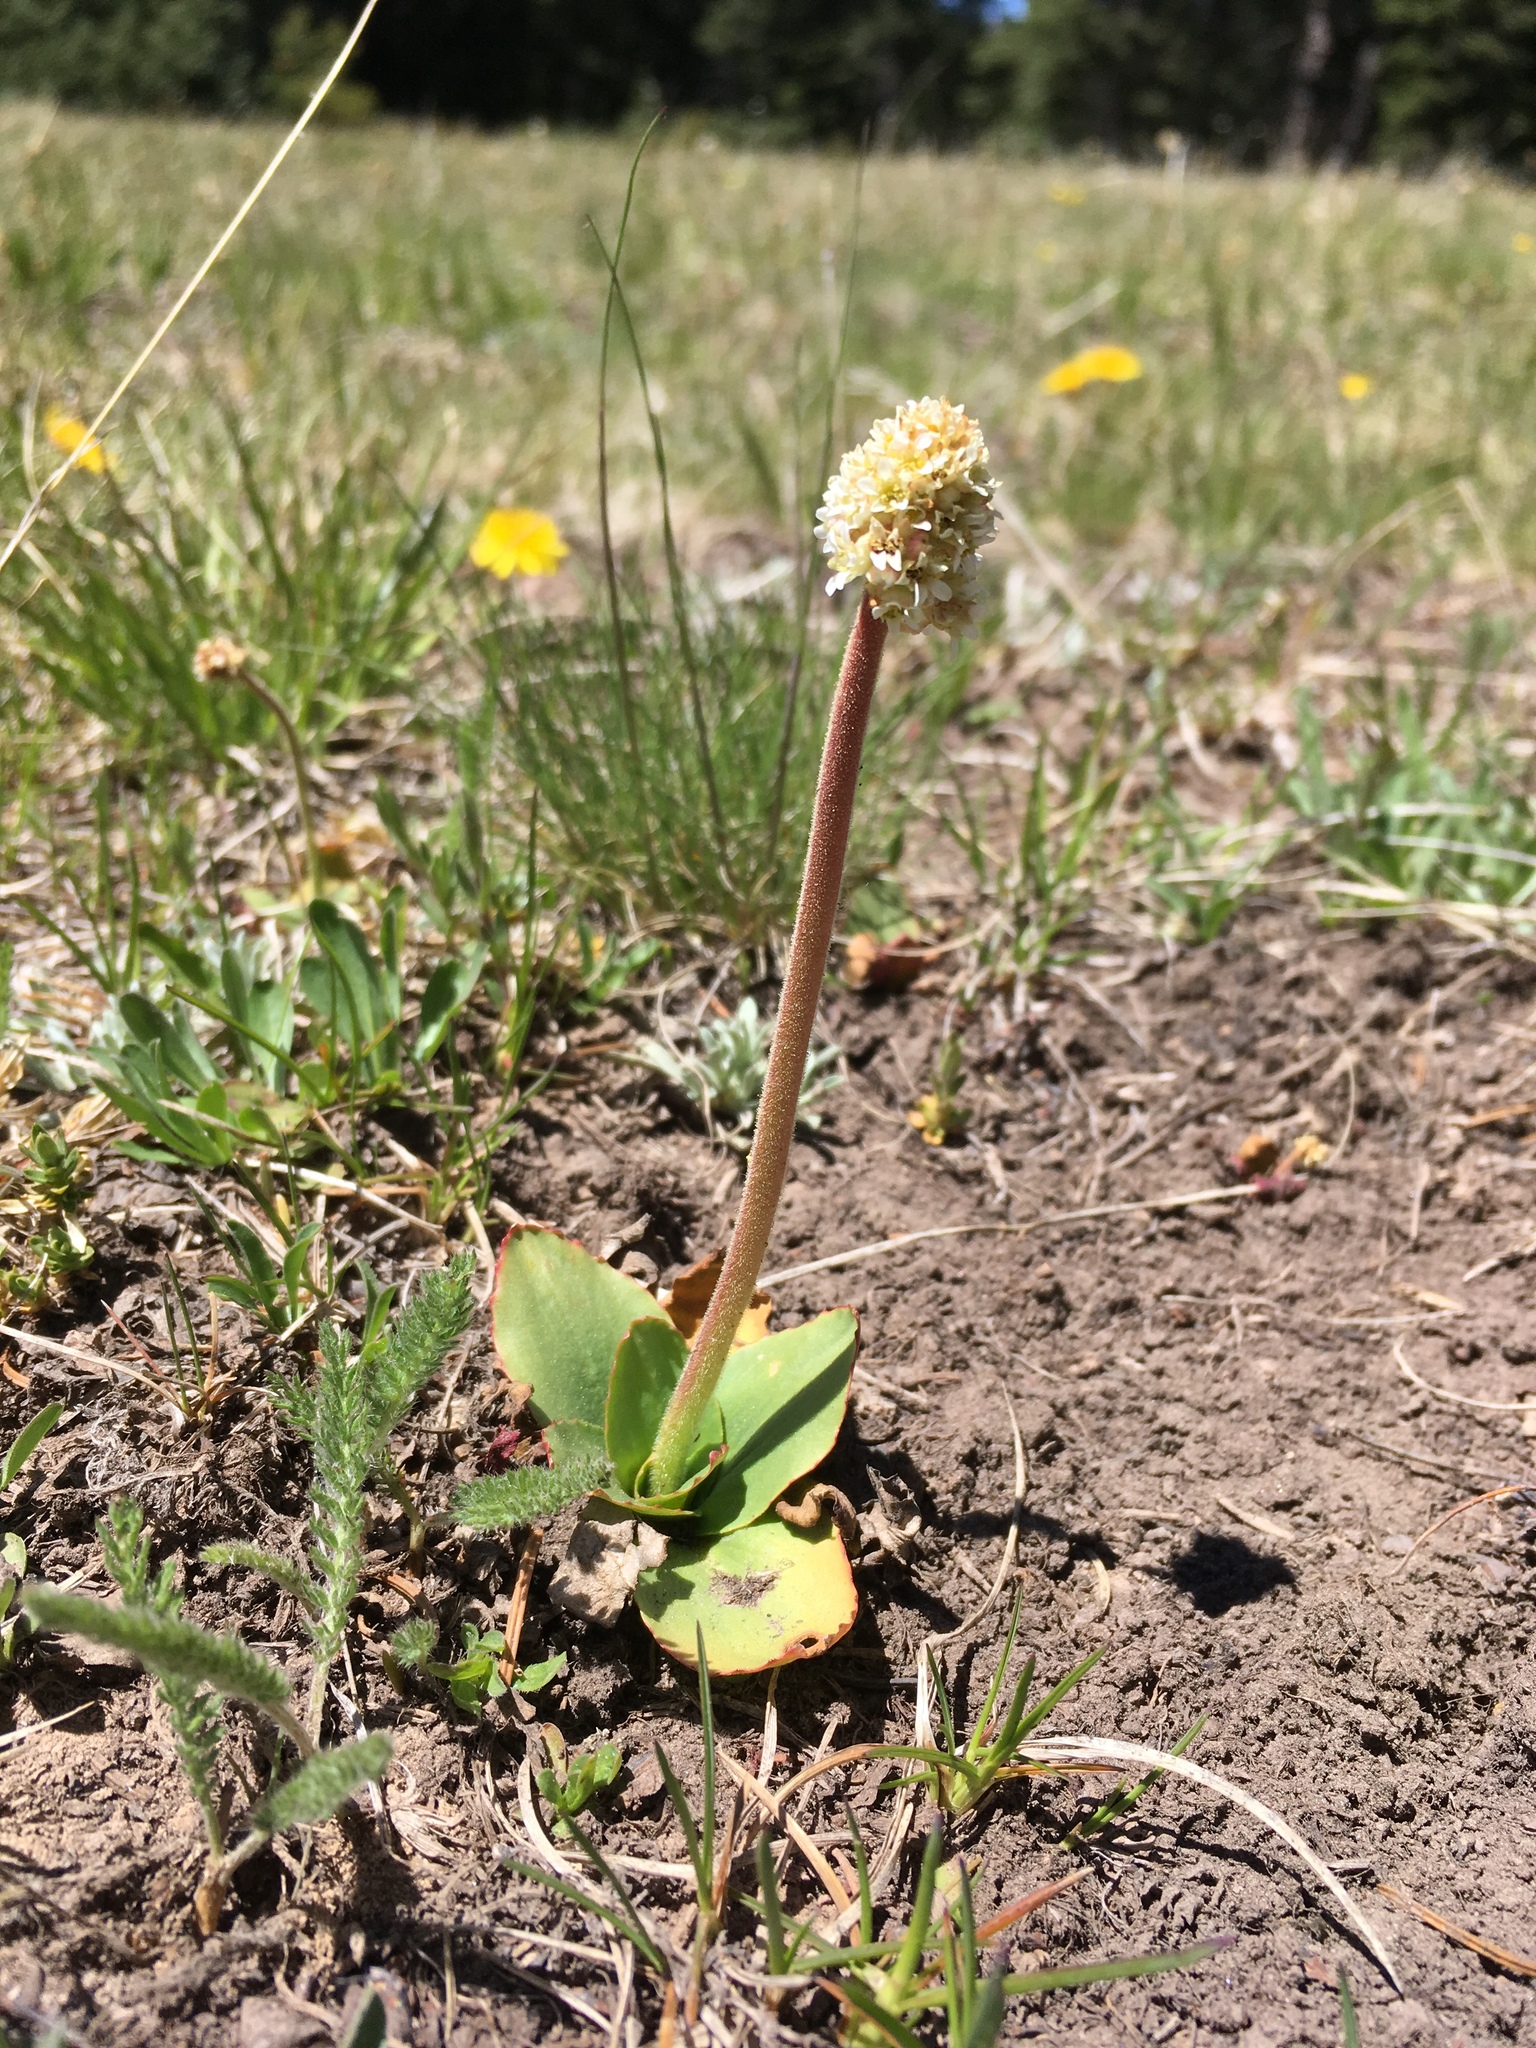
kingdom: Plantae
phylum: Tracheophyta
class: Magnoliopsida
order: Saxifragales
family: Saxifragaceae
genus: Micranthes
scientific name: Micranthes rhomboidea
